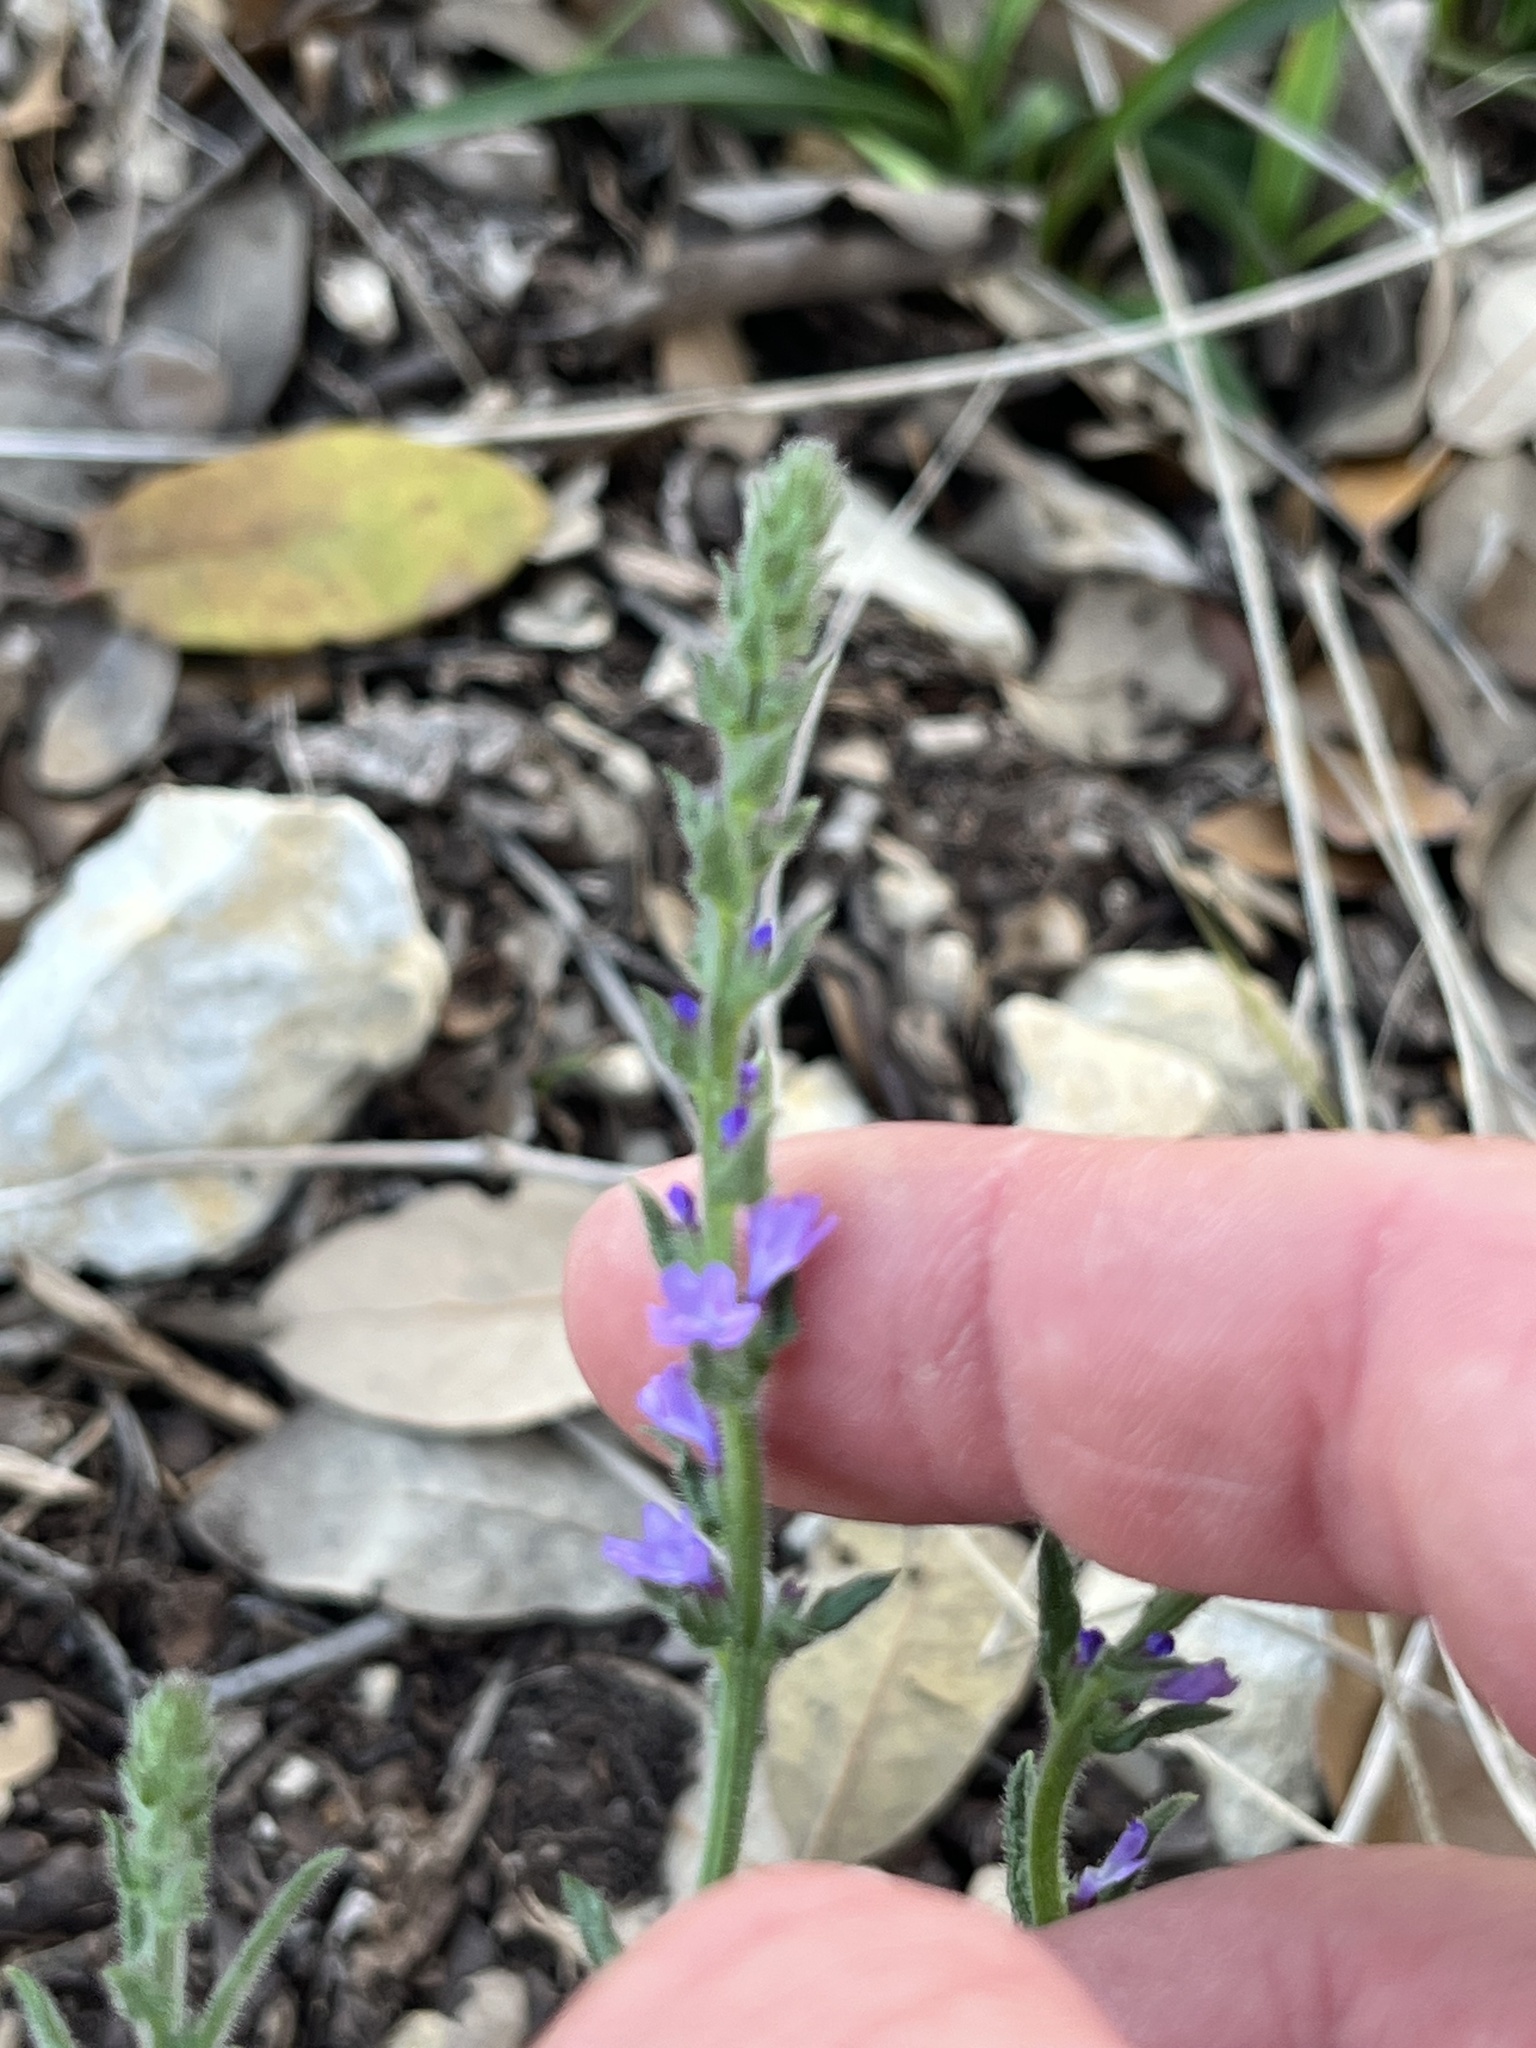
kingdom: Plantae
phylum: Tracheophyta
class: Magnoliopsida
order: Lamiales
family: Verbenaceae
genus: Verbena
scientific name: Verbena canescens
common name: Gray vervain
